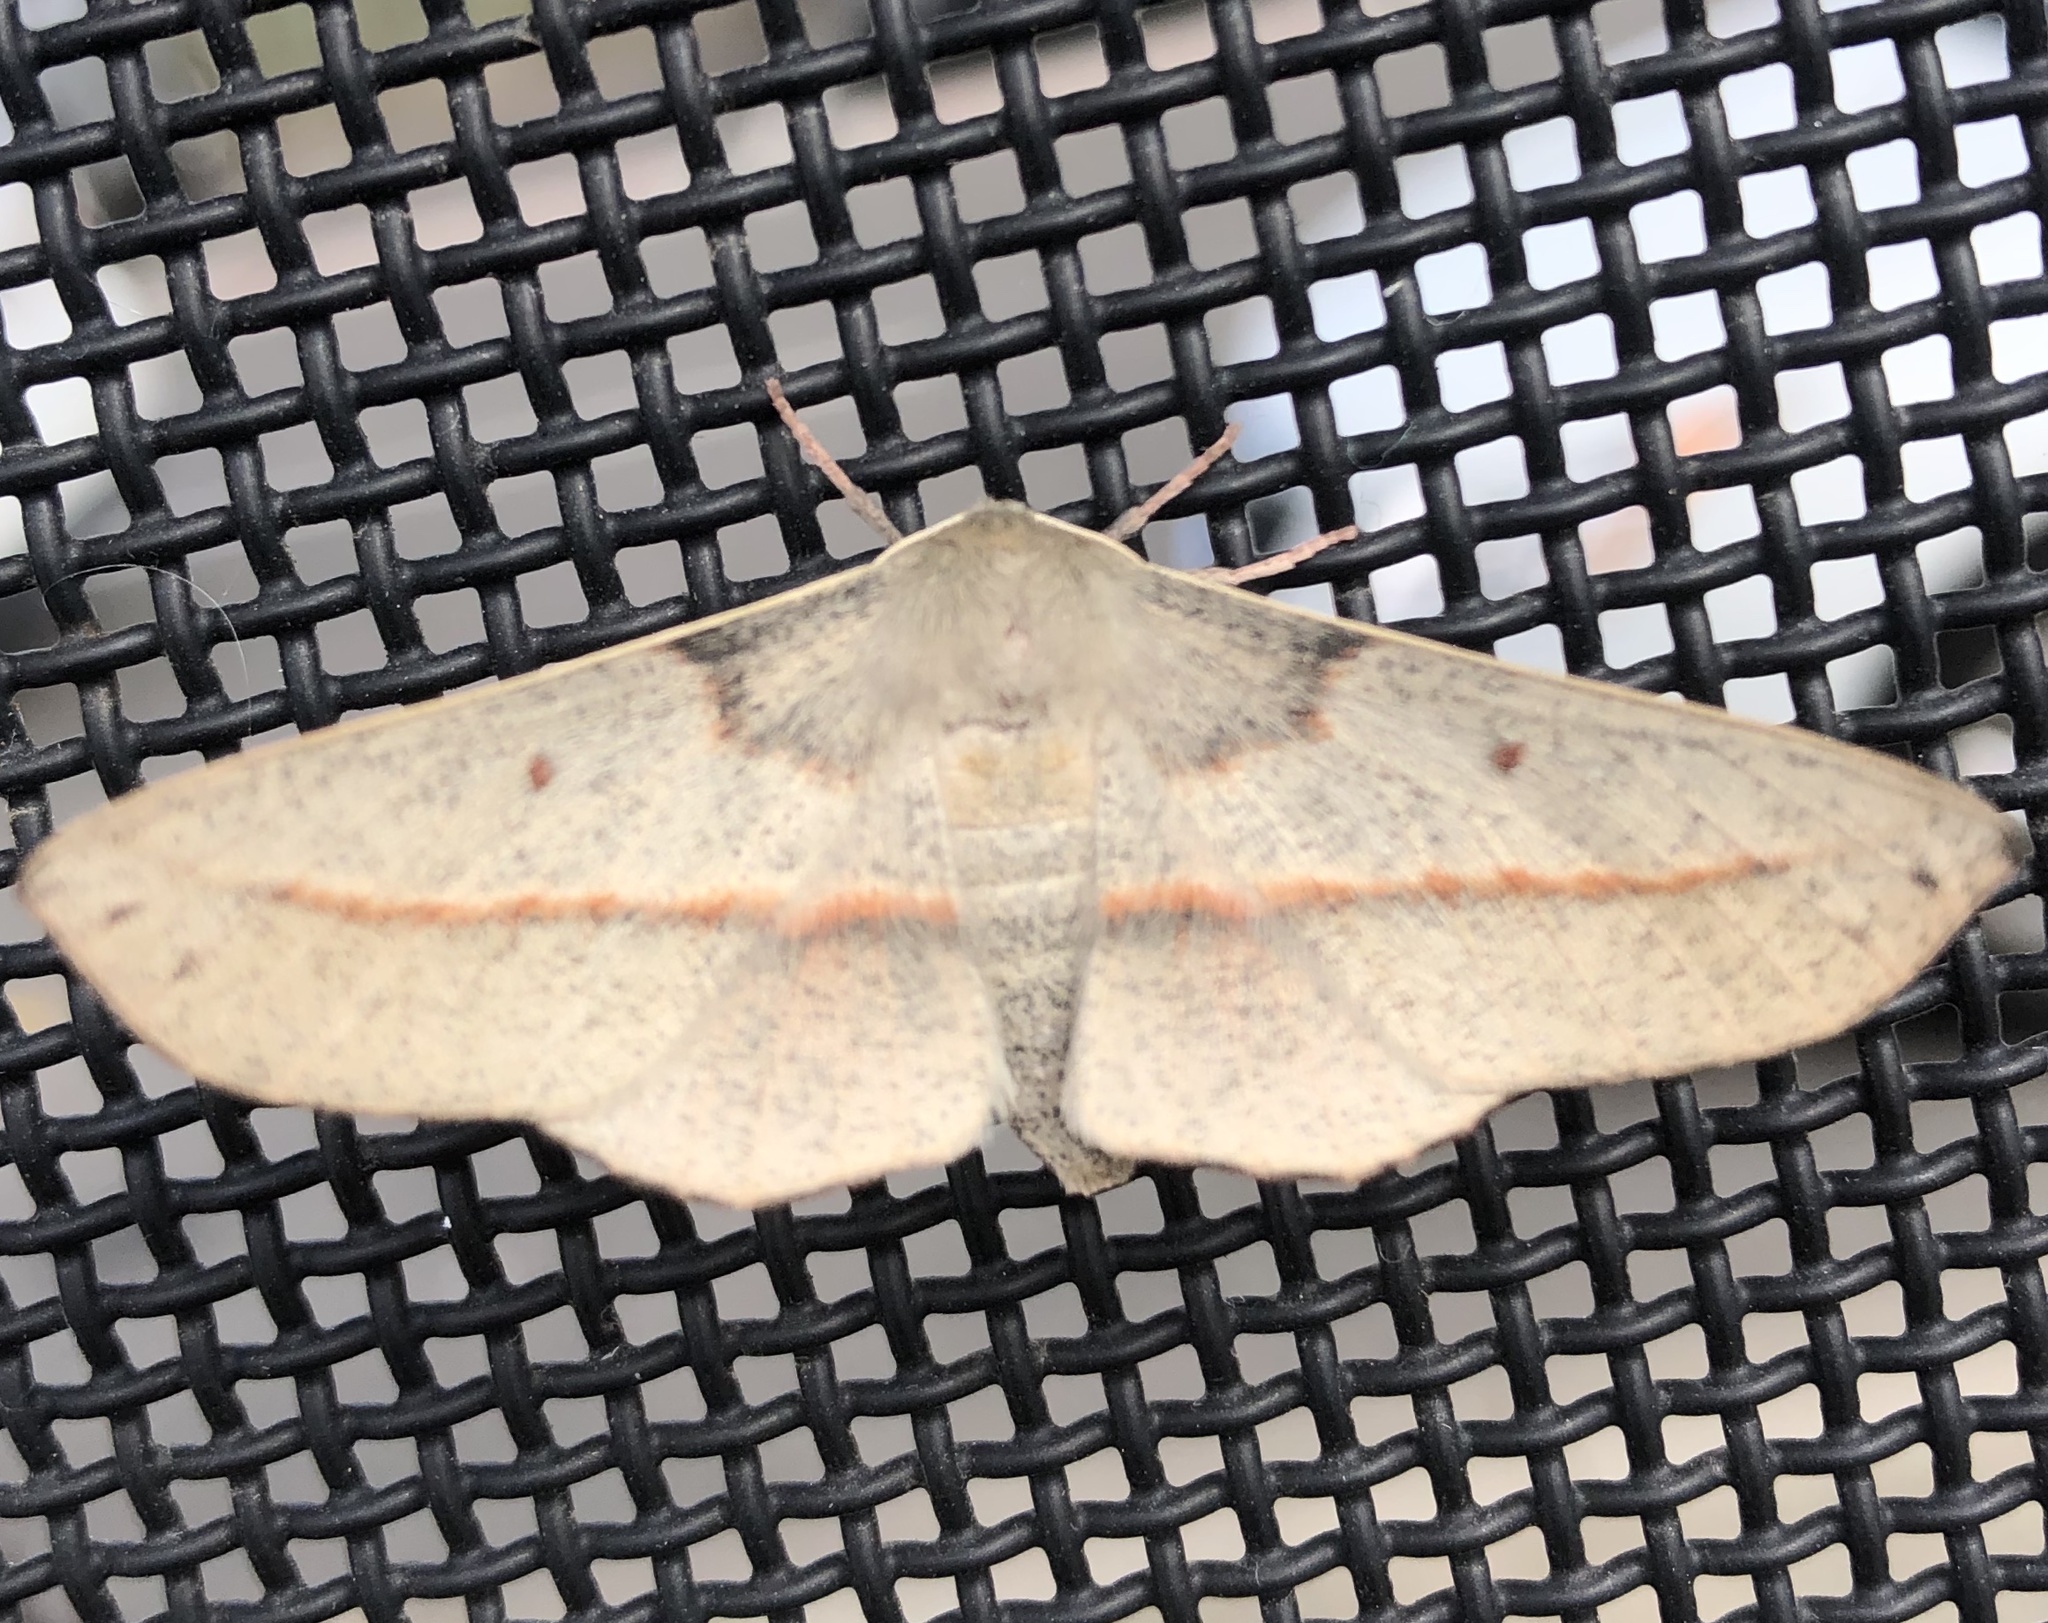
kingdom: Animalia
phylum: Arthropoda
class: Insecta
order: Lepidoptera
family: Geometridae
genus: Antictenia
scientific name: Antictenia punctunculus
